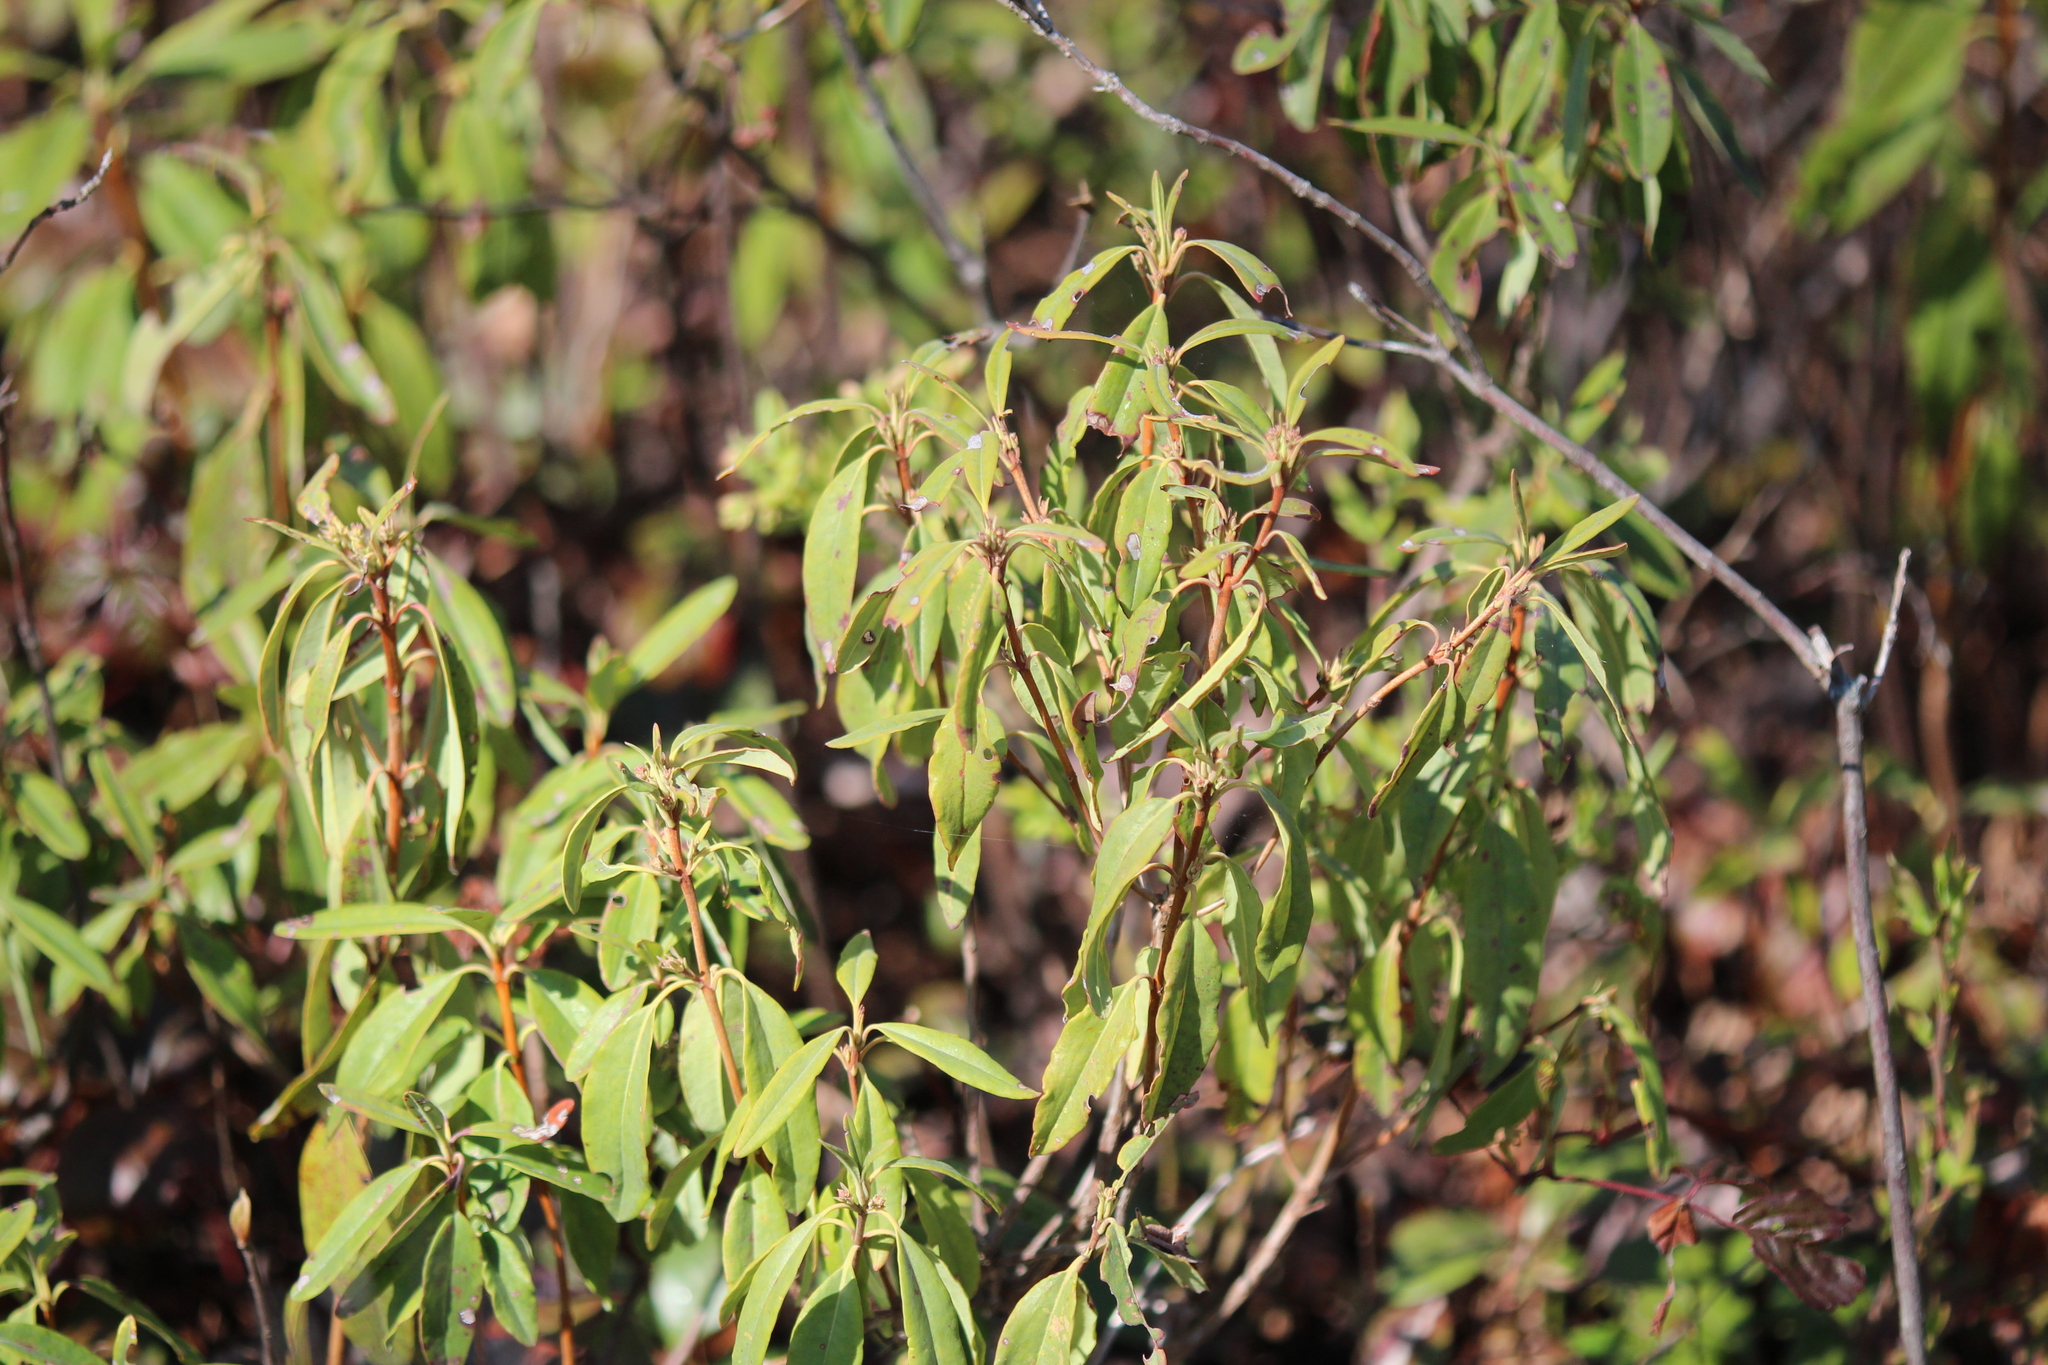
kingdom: Plantae
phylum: Tracheophyta
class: Magnoliopsida
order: Ericales
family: Ericaceae
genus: Kalmia
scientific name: Kalmia angustifolia
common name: Sheep-laurel
